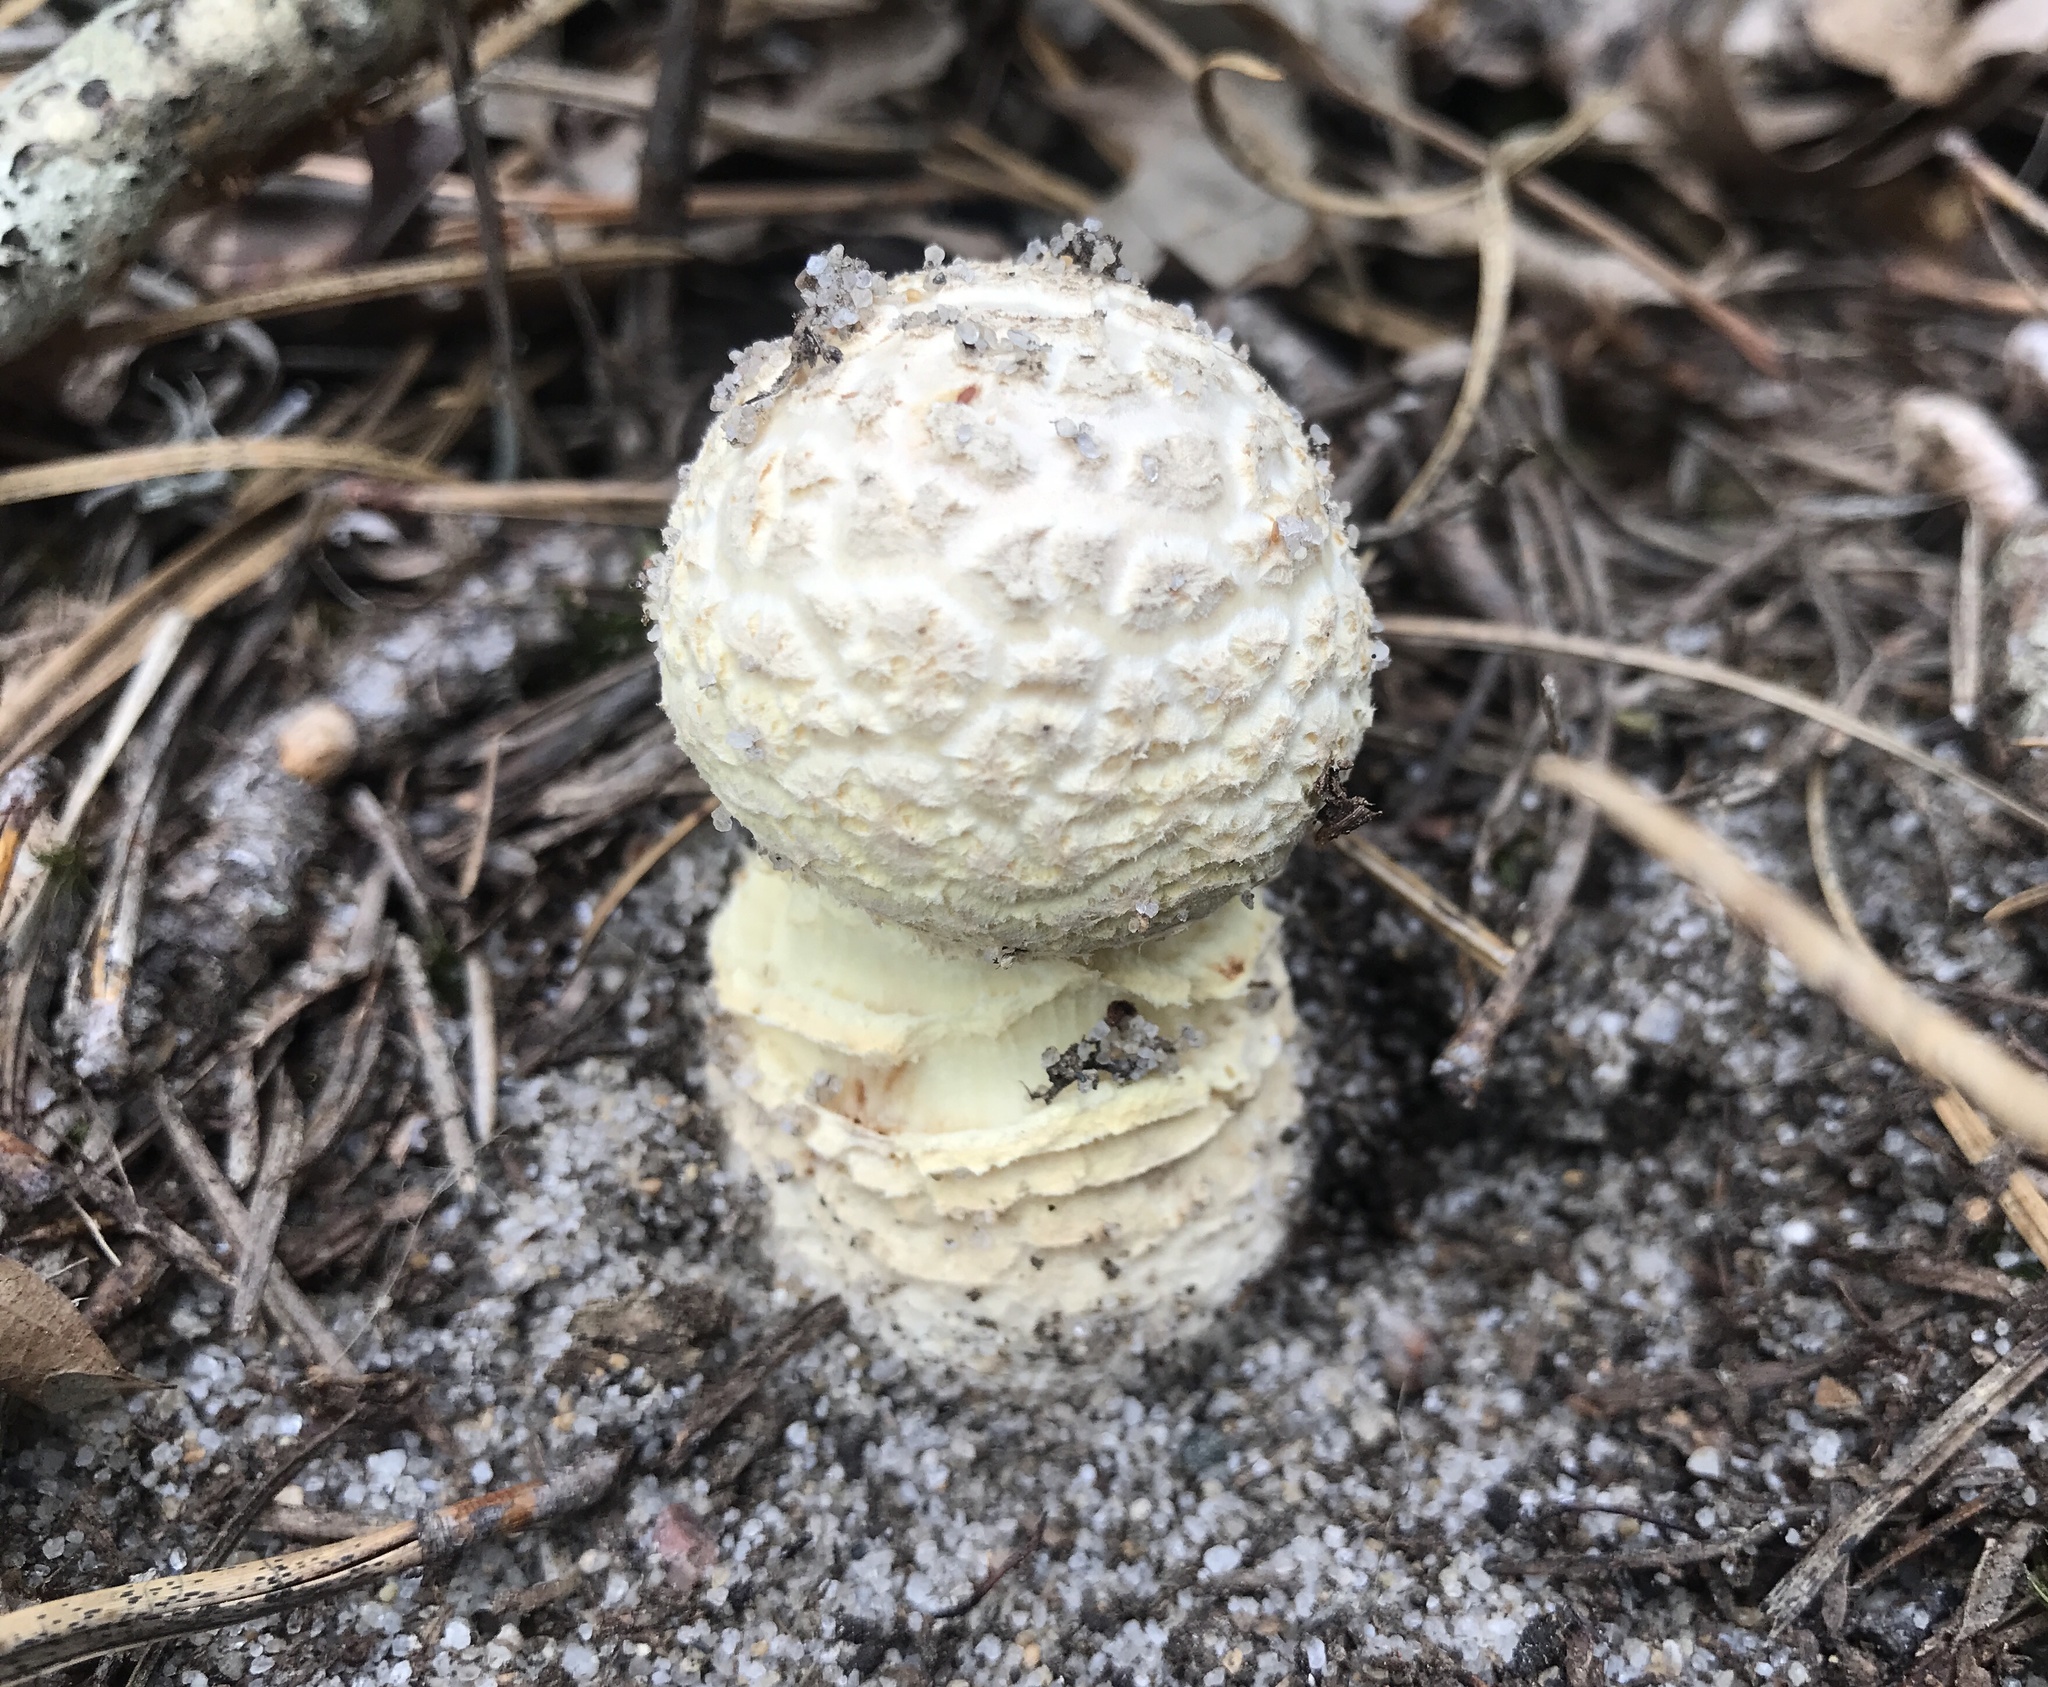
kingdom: Fungi
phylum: Basidiomycota
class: Agaricomycetes
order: Agaricales
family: Amanitaceae
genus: Amanita
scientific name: Amanita muscaria
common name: Fly agaric
